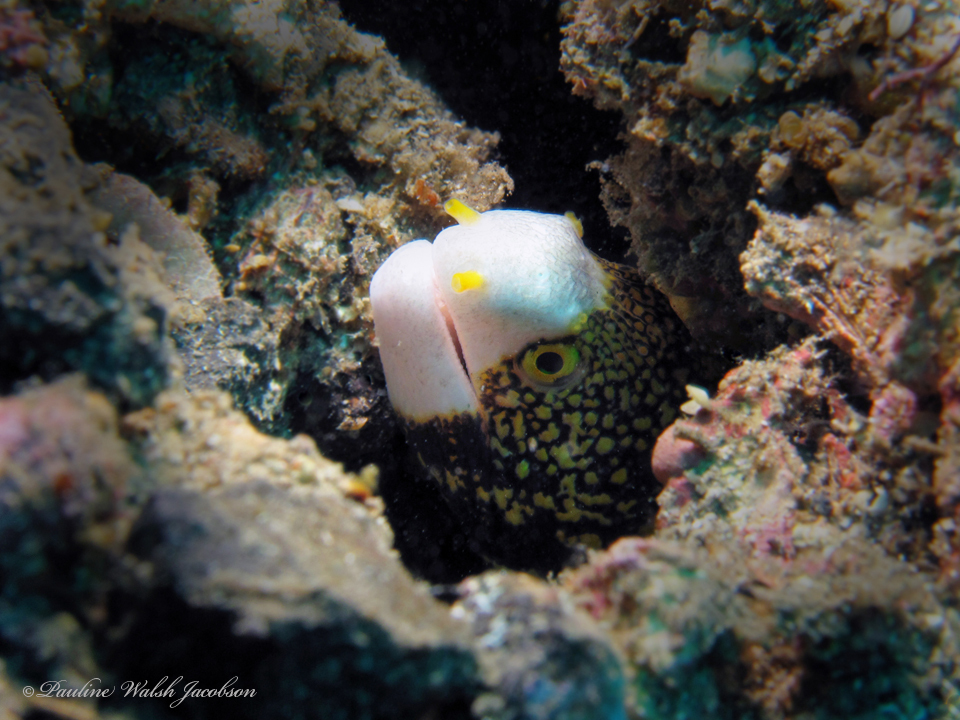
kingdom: Animalia
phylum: Chordata
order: Anguilliformes
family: Muraenidae
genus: Echidna
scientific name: Echidna nebulosa
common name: Snowflake moray
